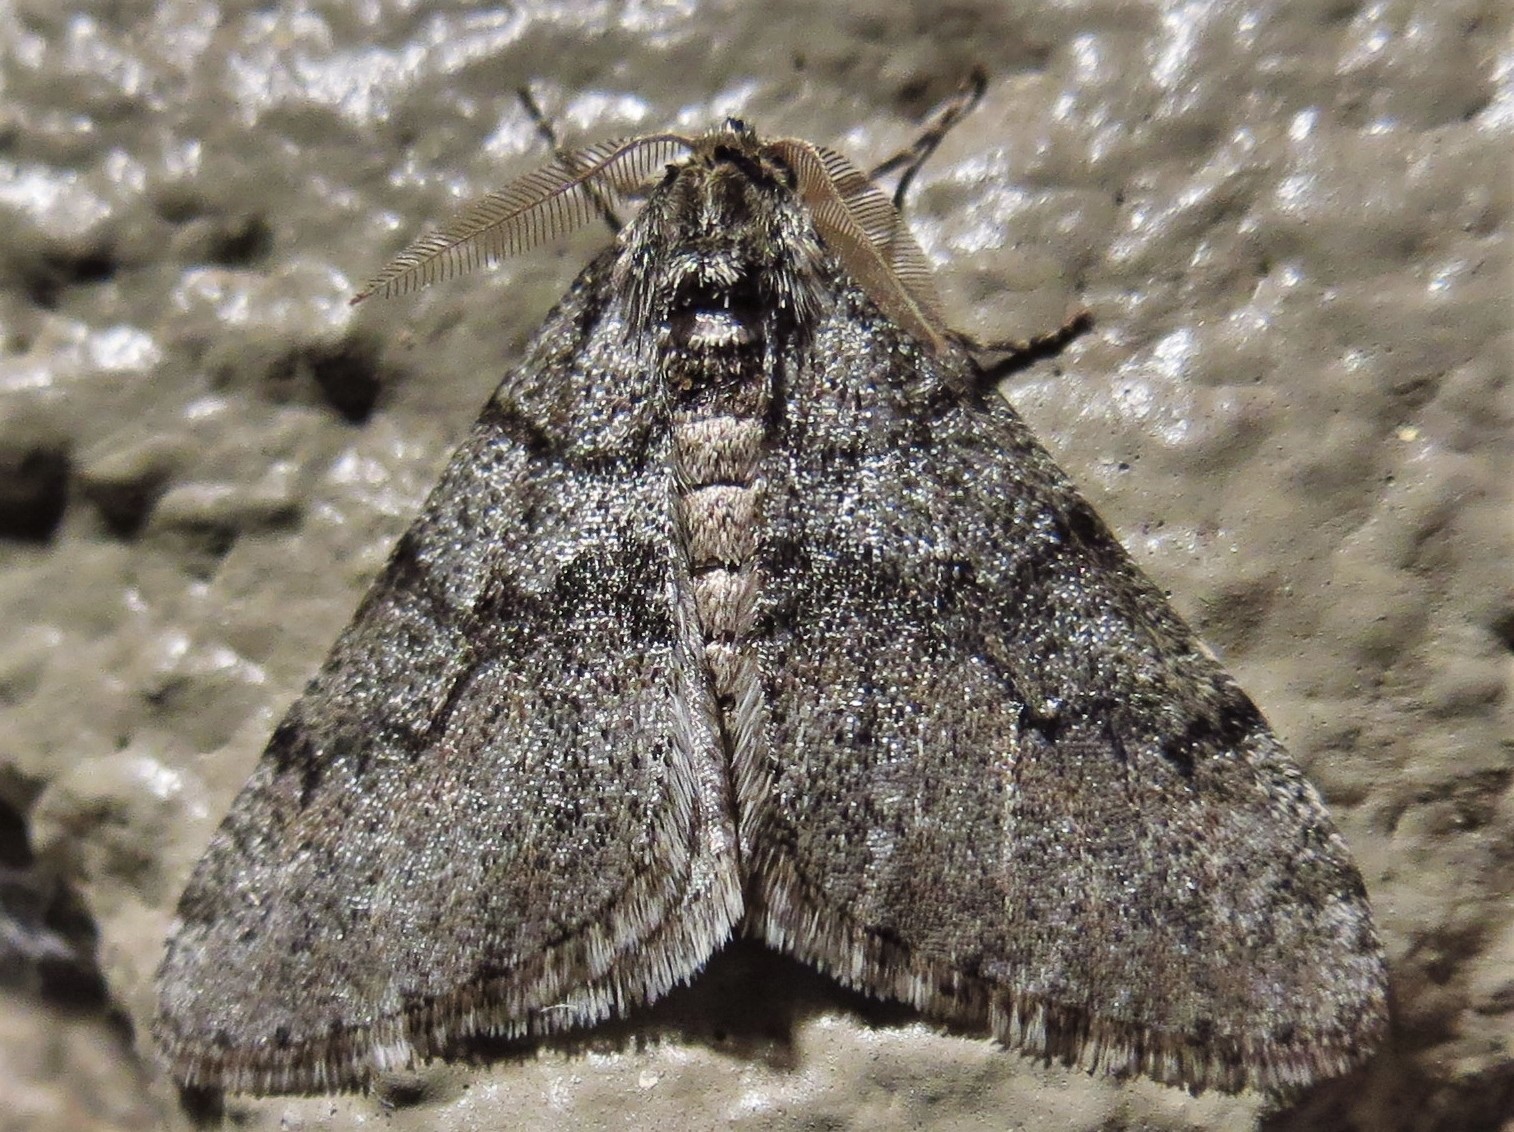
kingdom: Animalia
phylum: Arthropoda
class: Insecta
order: Lepidoptera
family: Geometridae
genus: Phigalia
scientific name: Phigalia denticulata
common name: Toothed phigalia
